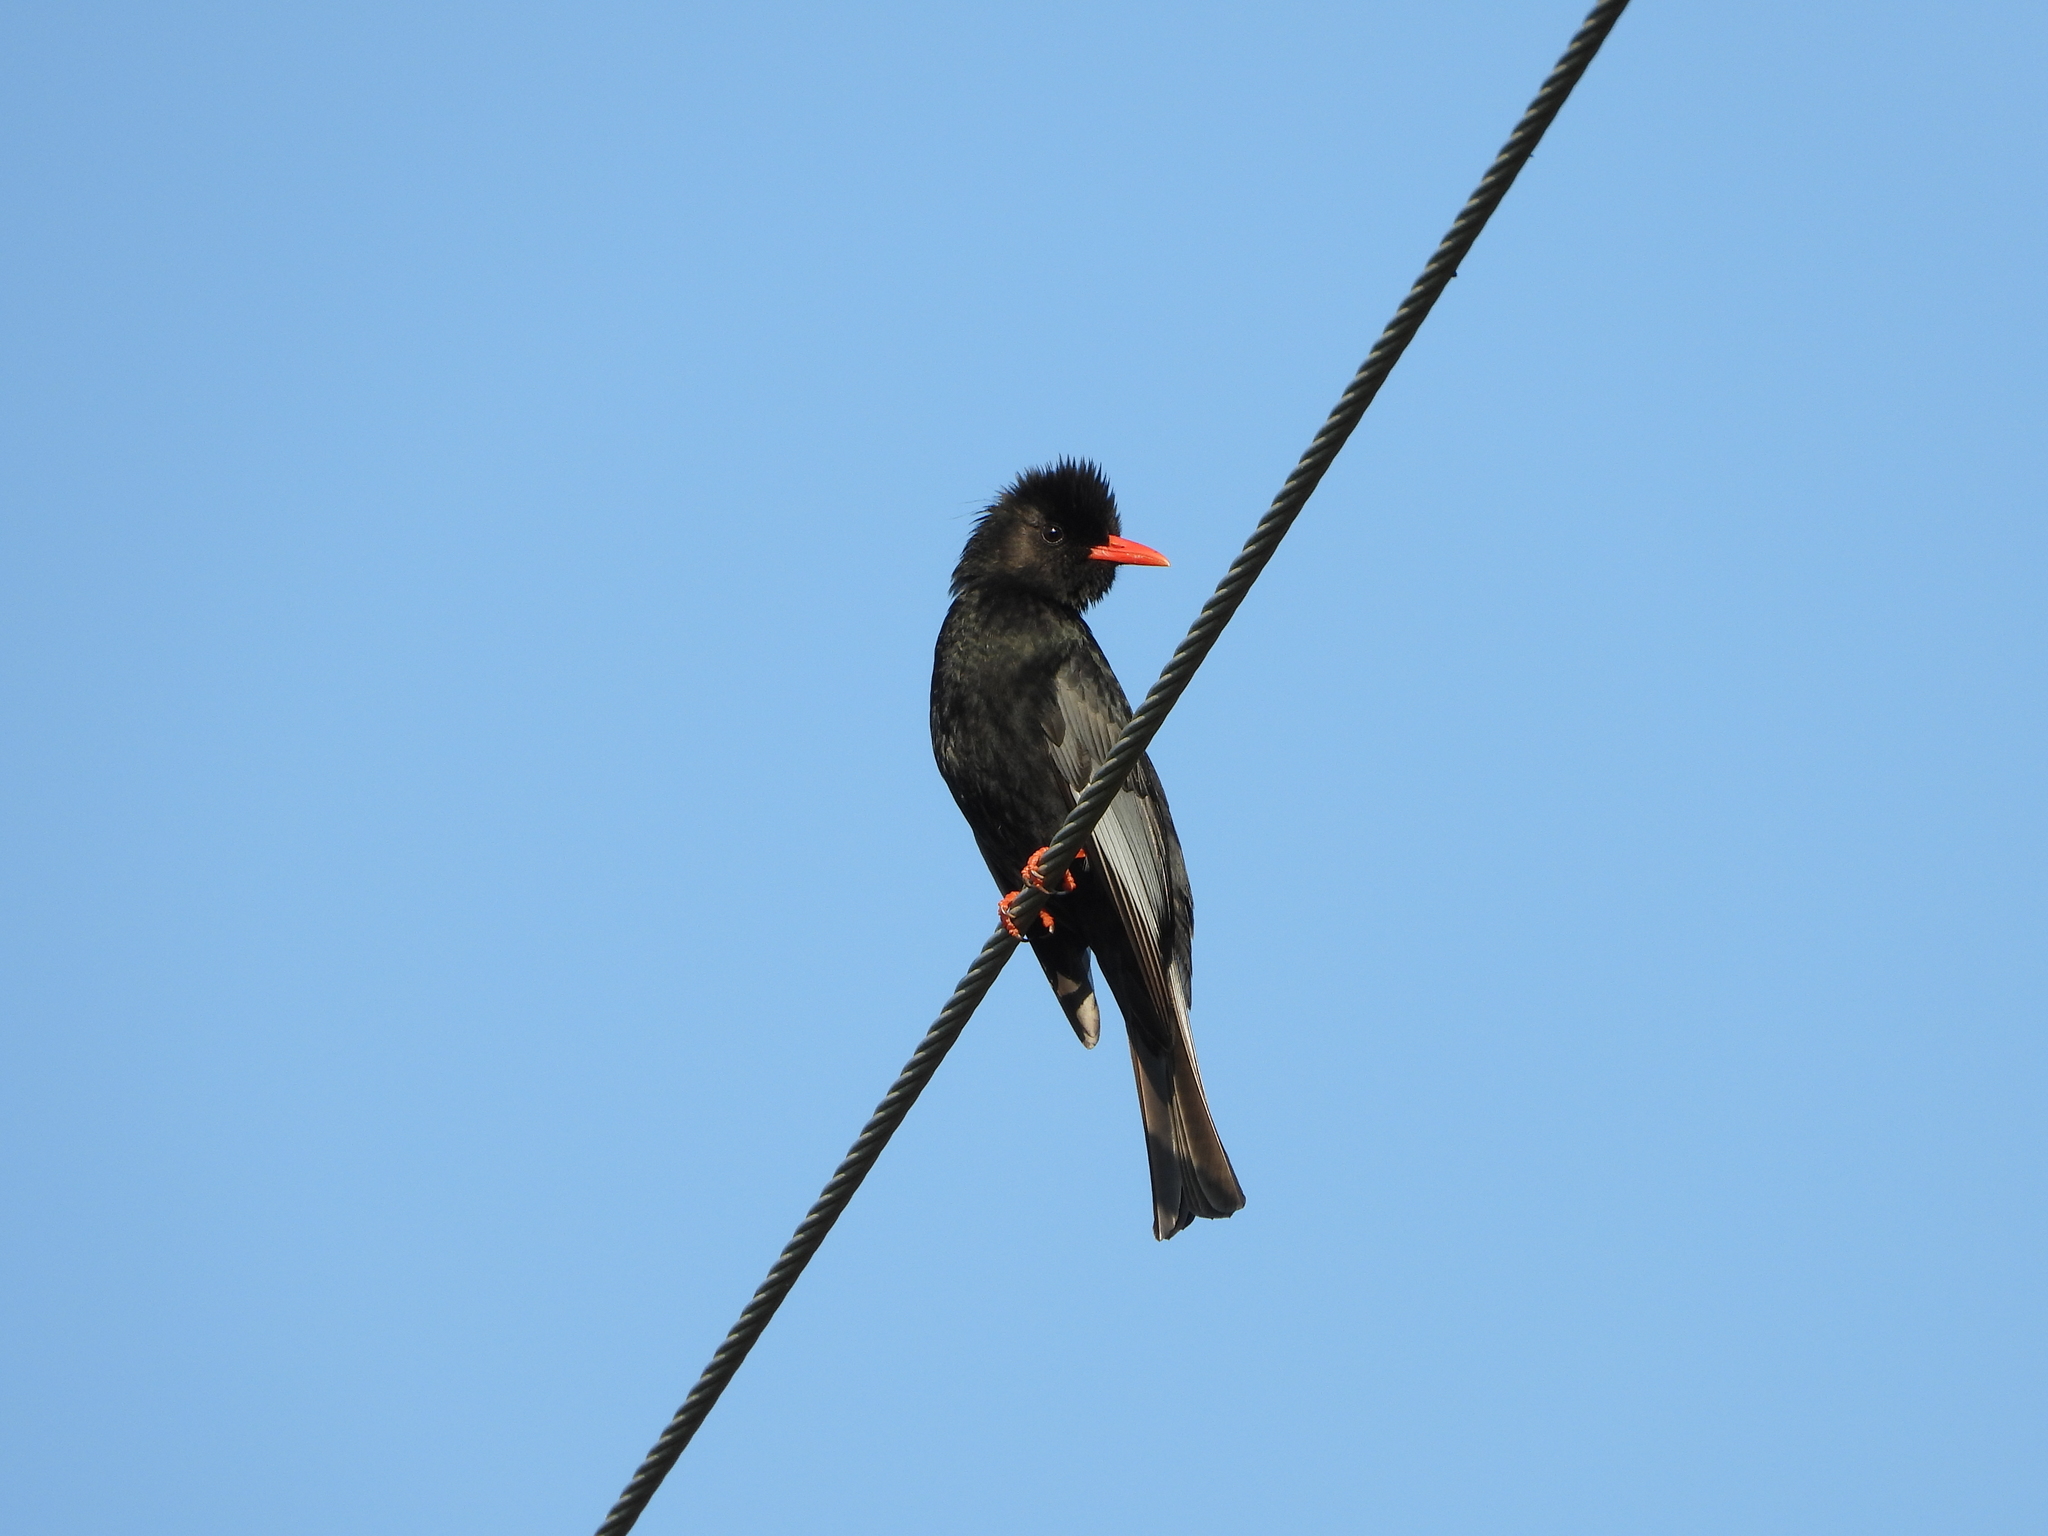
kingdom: Animalia
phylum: Chordata
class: Aves
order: Passeriformes
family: Pycnonotidae
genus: Hypsipetes
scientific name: Hypsipetes leucocephalus
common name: Black bulbul
